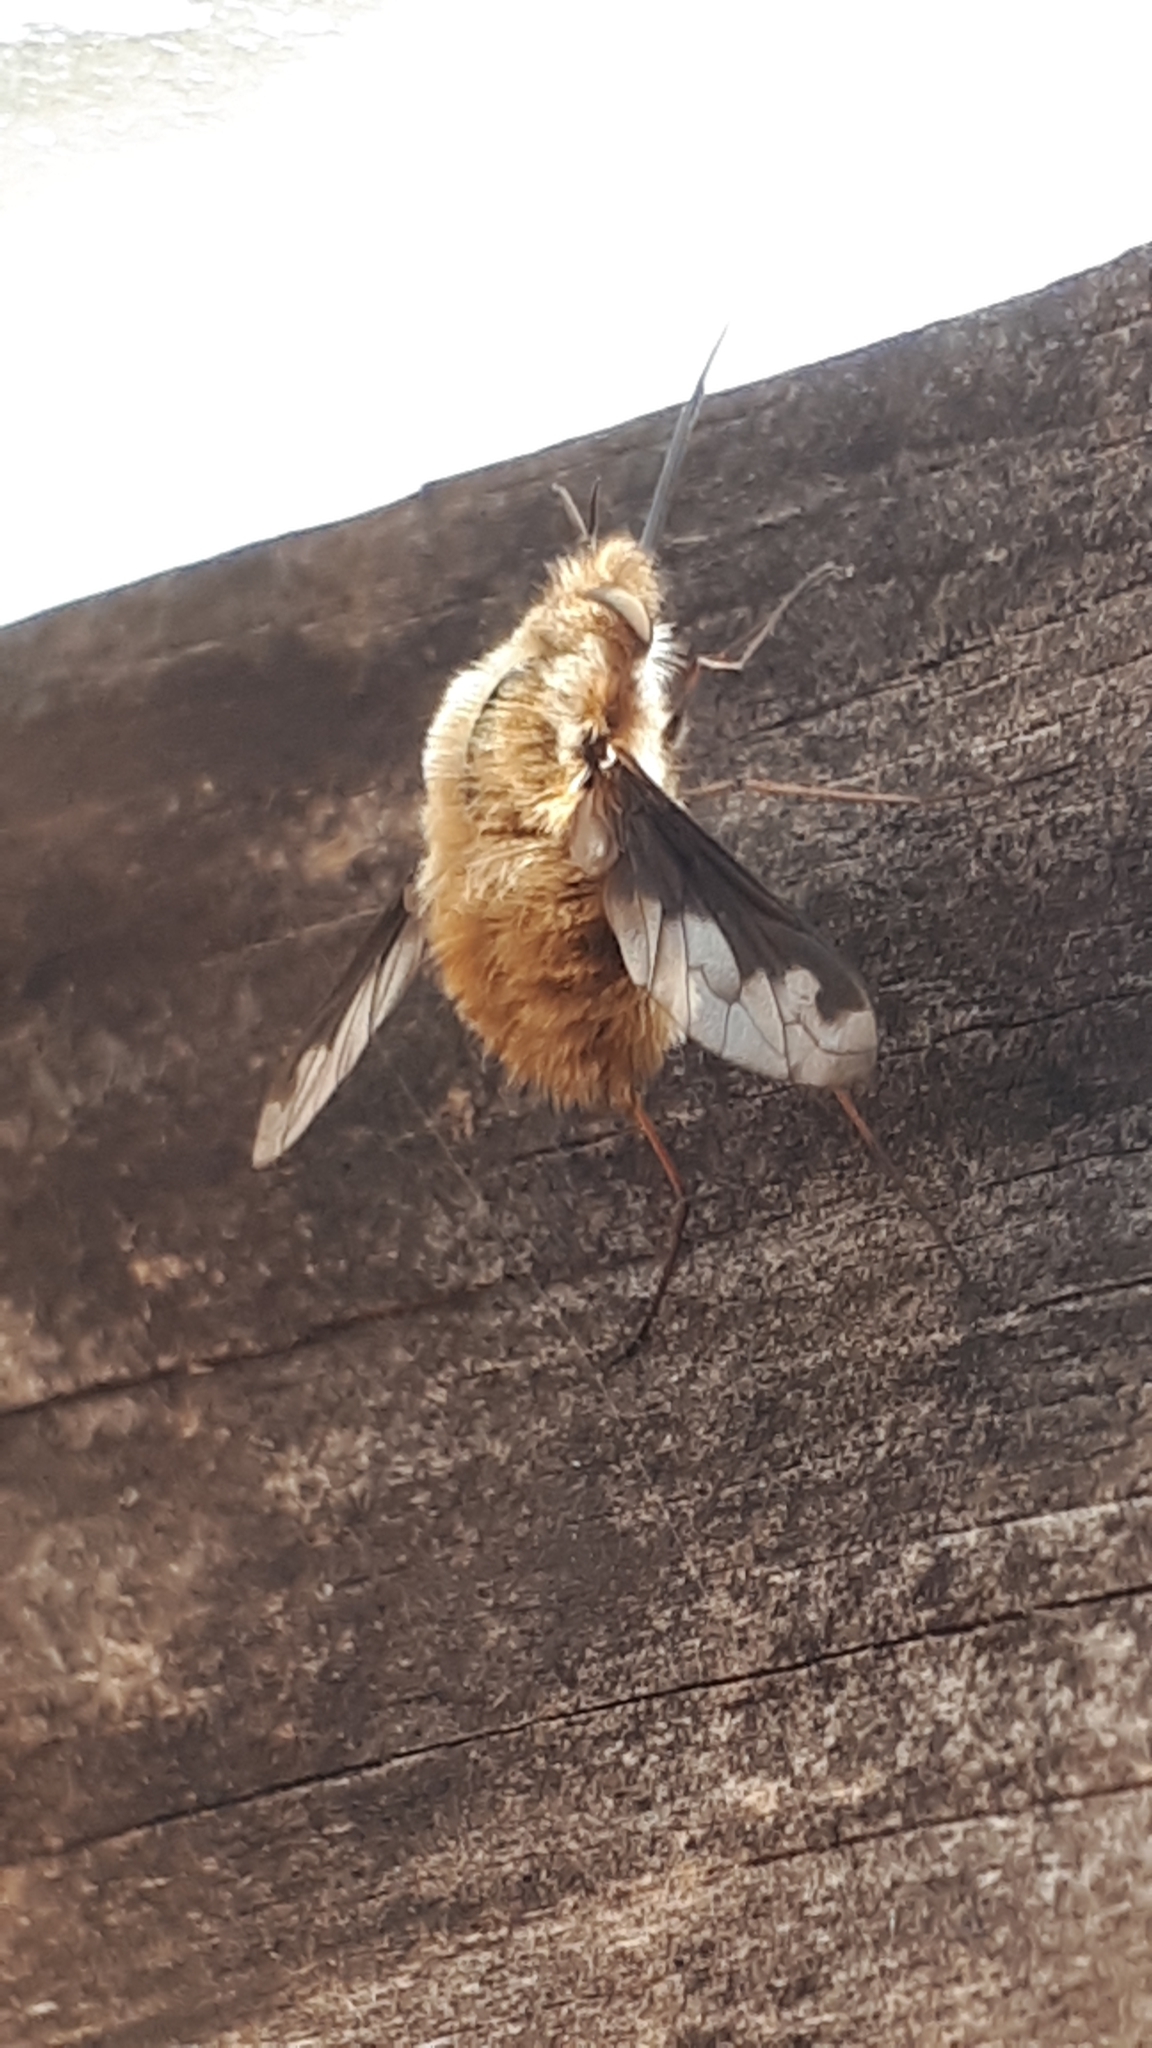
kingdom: Animalia
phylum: Arthropoda
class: Insecta
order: Diptera
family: Bombyliidae
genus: Bombylius
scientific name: Bombylius major
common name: Bee fly
